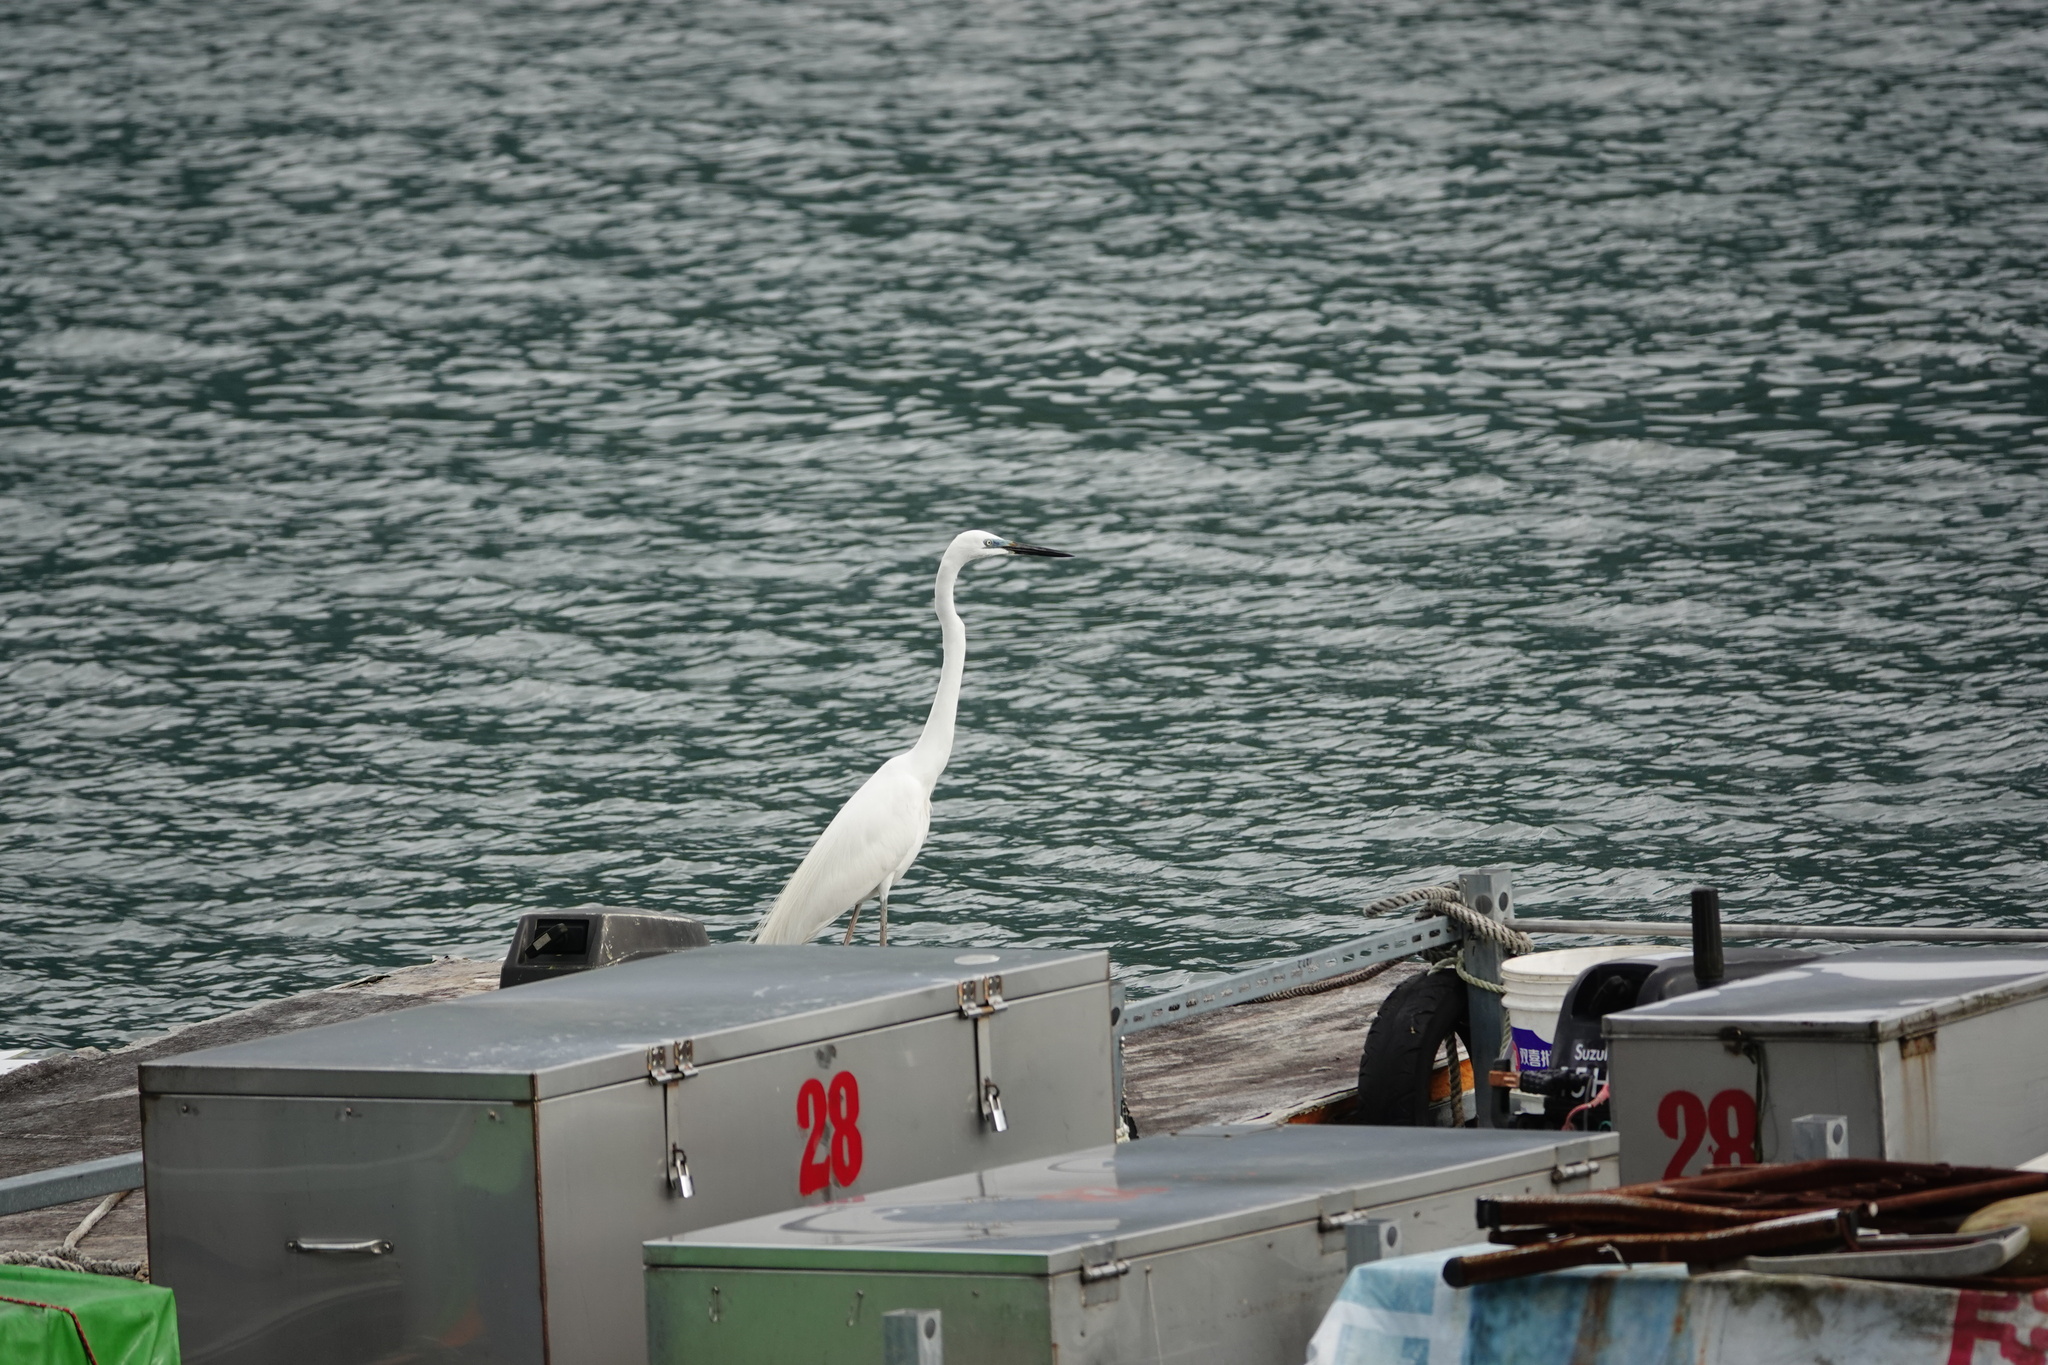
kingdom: Animalia
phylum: Chordata
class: Aves
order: Pelecaniformes
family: Ardeidae
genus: Ardea
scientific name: Ardea alba
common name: Great egret
